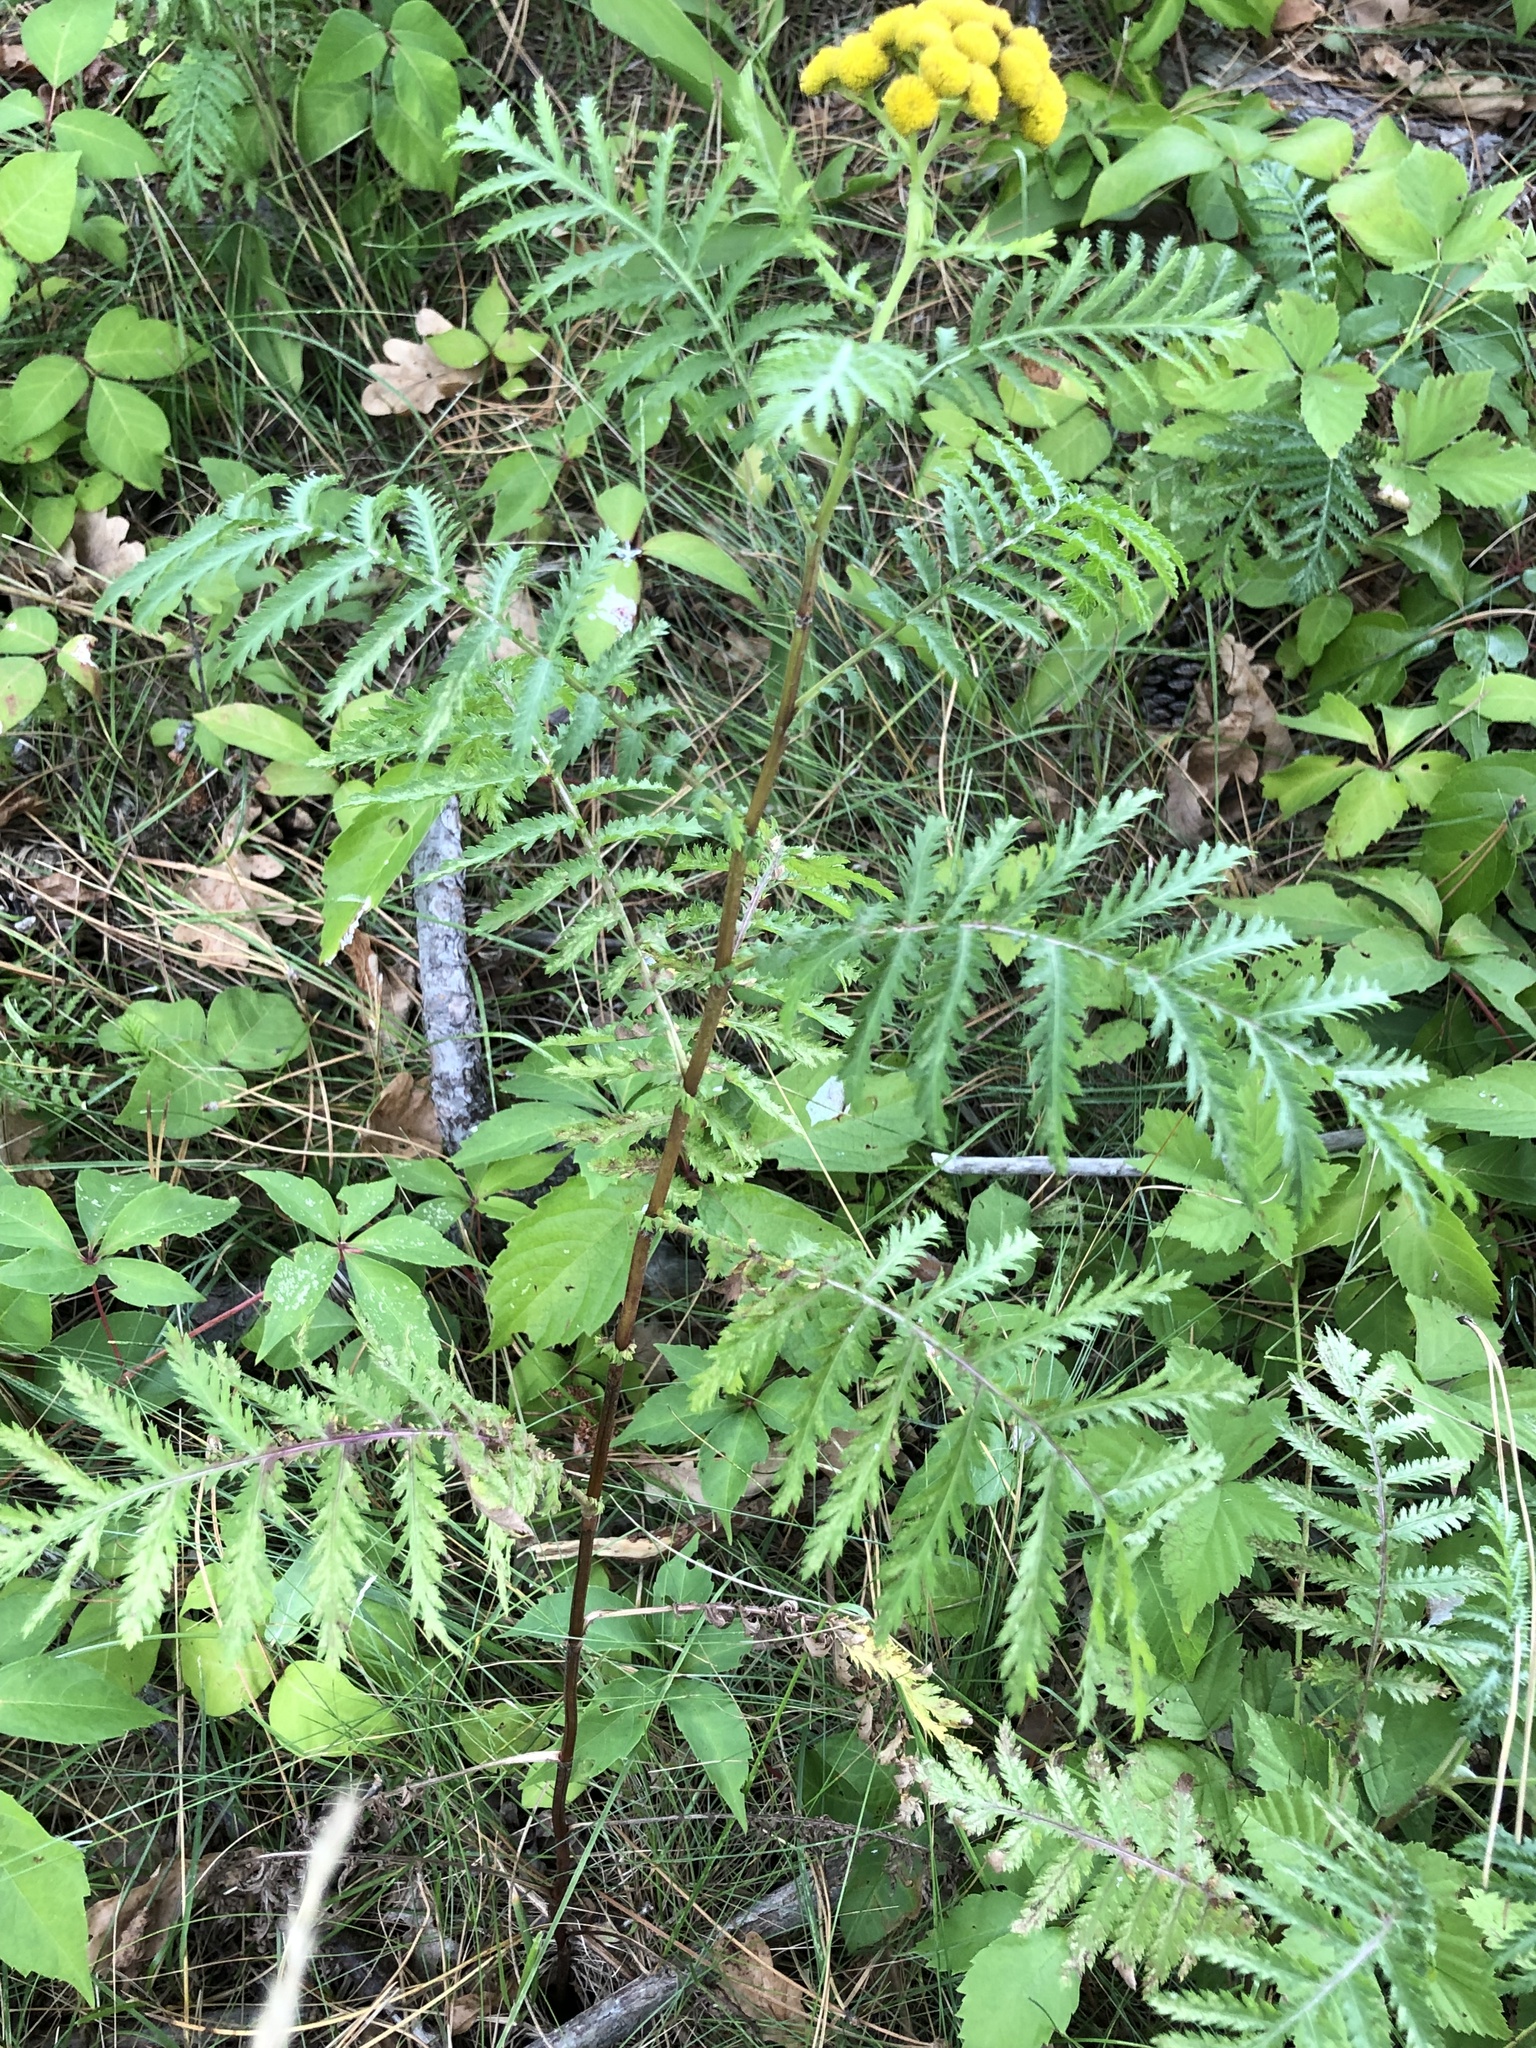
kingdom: Plantae
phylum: Tracheophyta
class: Magnoliopsida
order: Asterales
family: Asteraceae
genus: Tanacetum
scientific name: Tanacetum vulgare
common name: Common tansy
